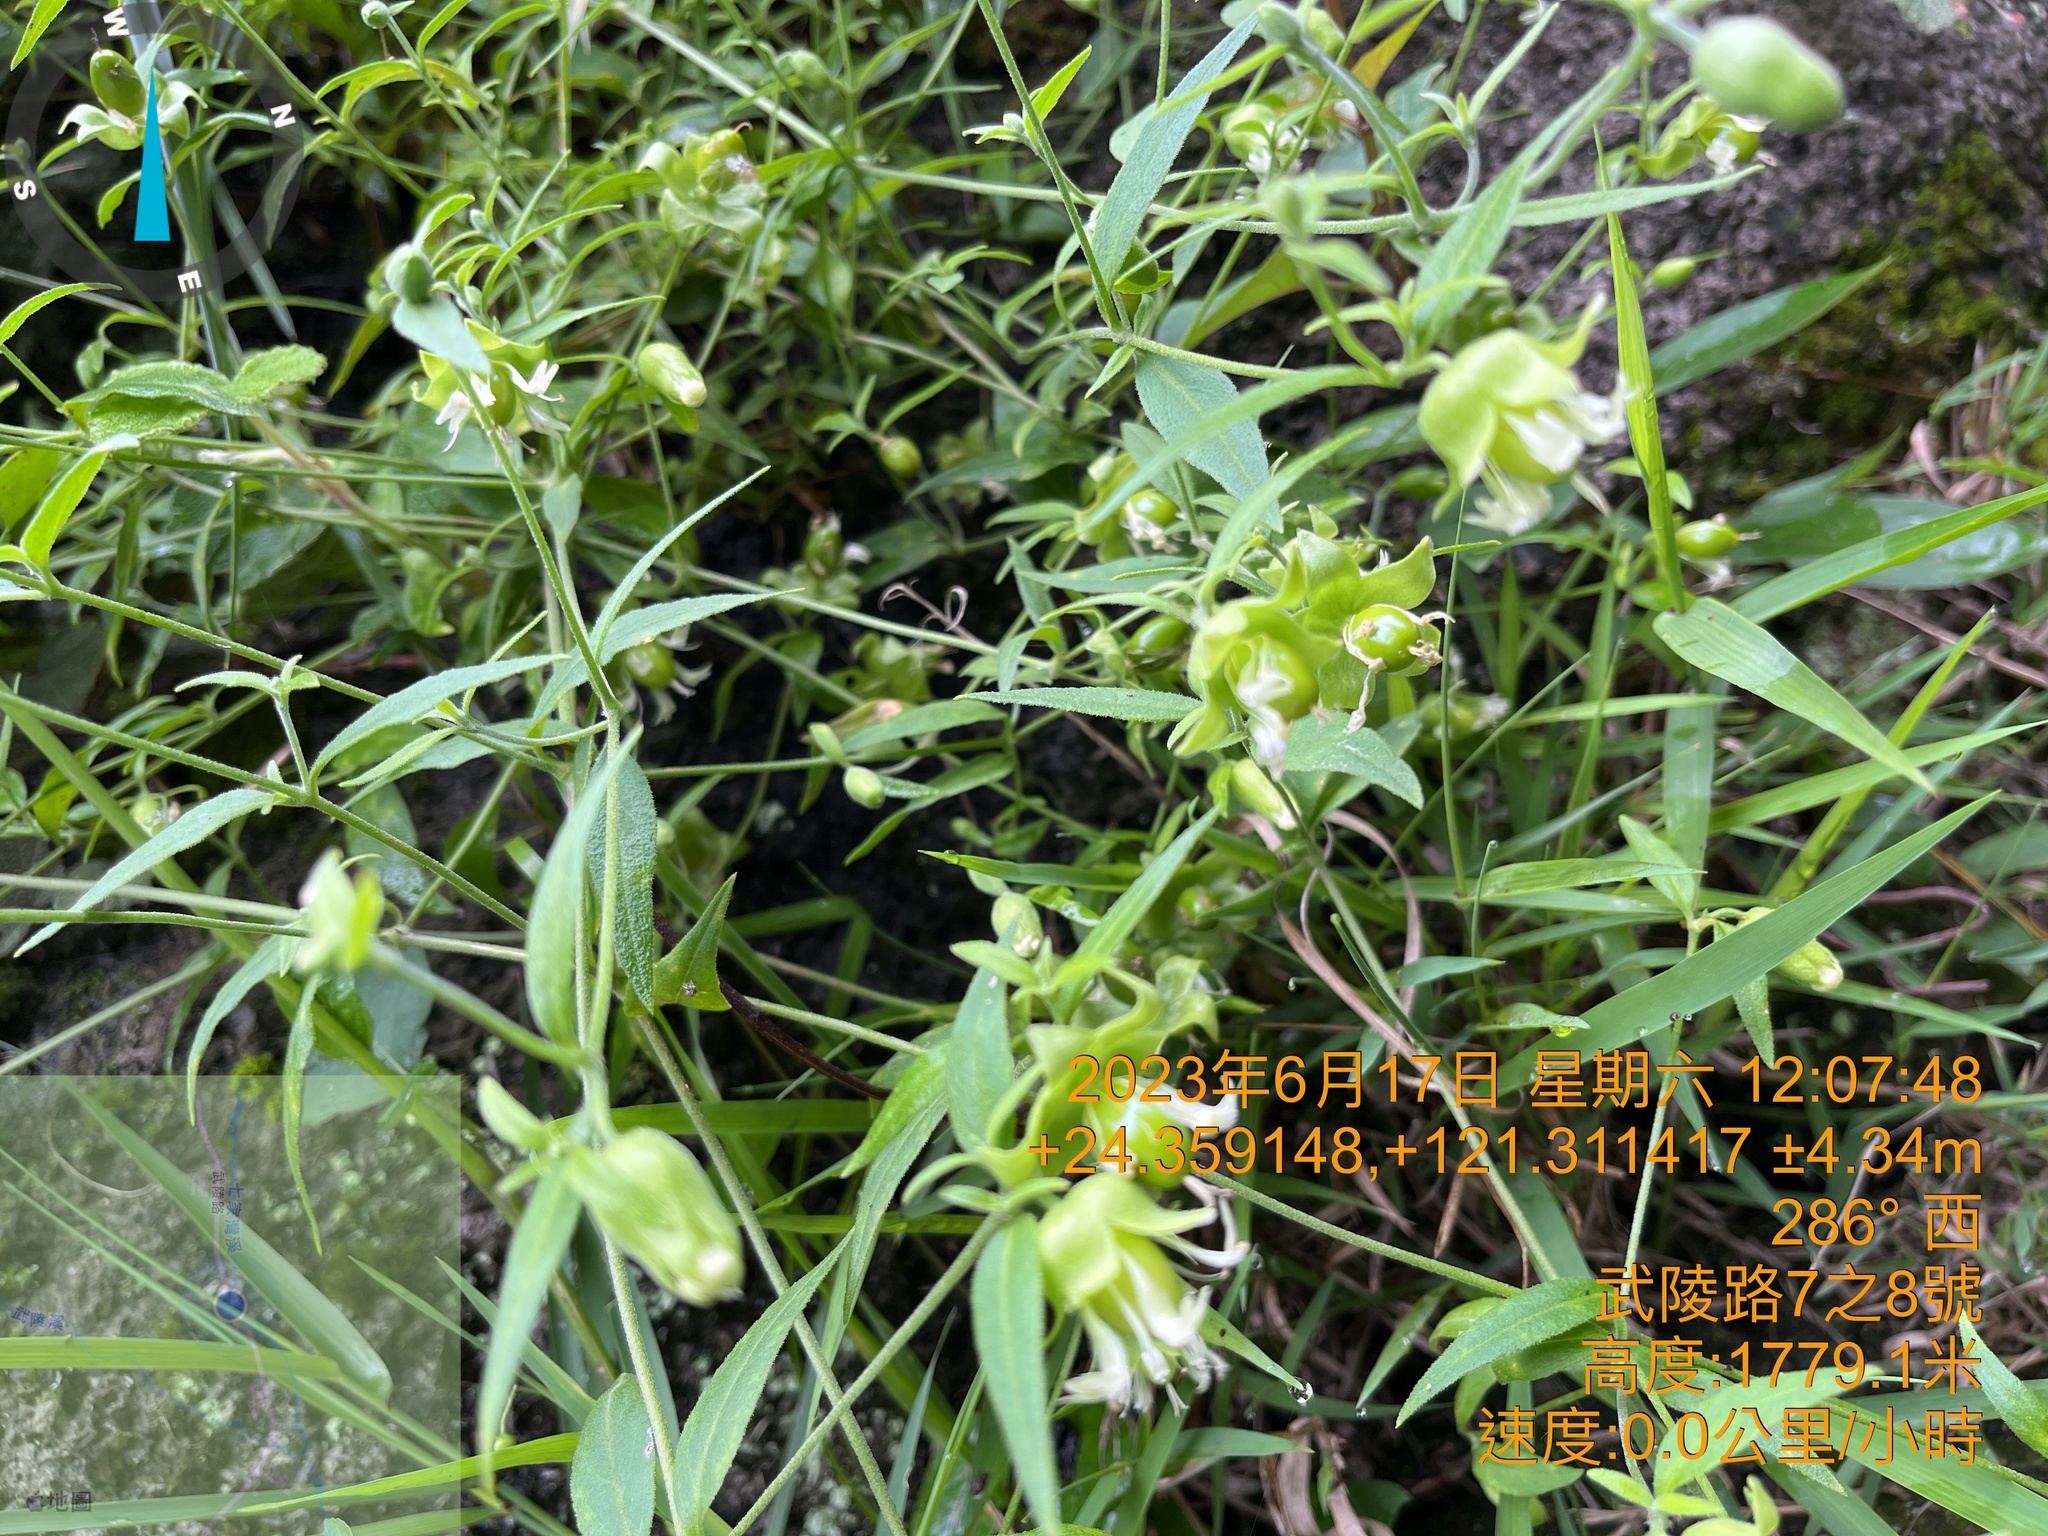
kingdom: Plantae
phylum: Tracheophyta
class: Magnoliopsida
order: Caryophyllales
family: Caryophyllaceae
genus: Silene
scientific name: Silene baccifera
